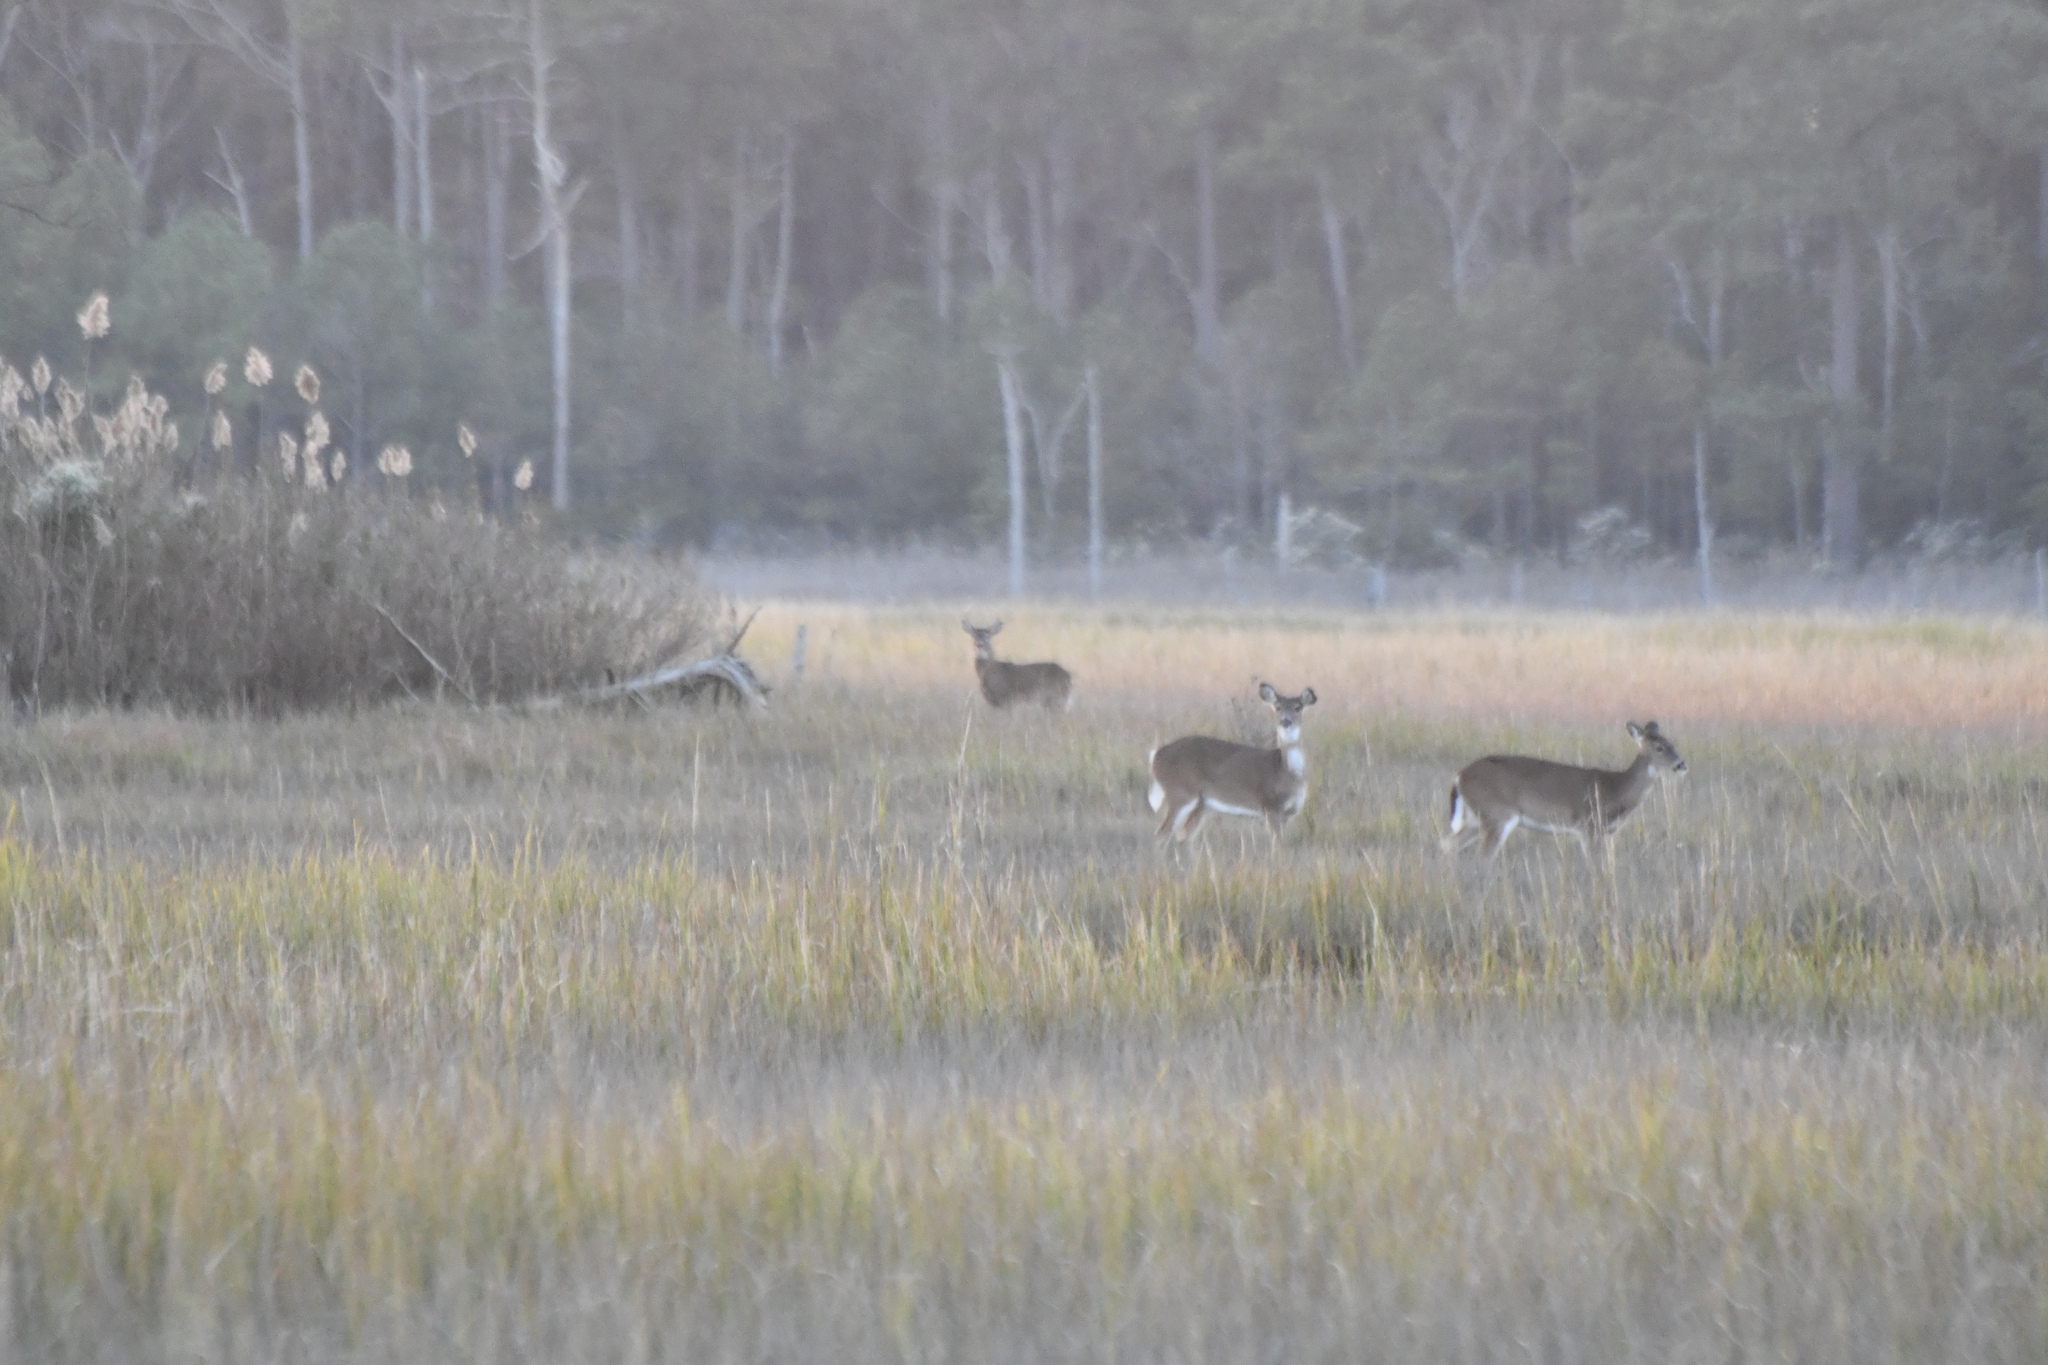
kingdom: Animalia
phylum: Chordata
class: Mammalia
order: Artiodactyla
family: Cervidae
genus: Odocoileus
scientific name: Odocoileus virginianus
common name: White-tailed deer
